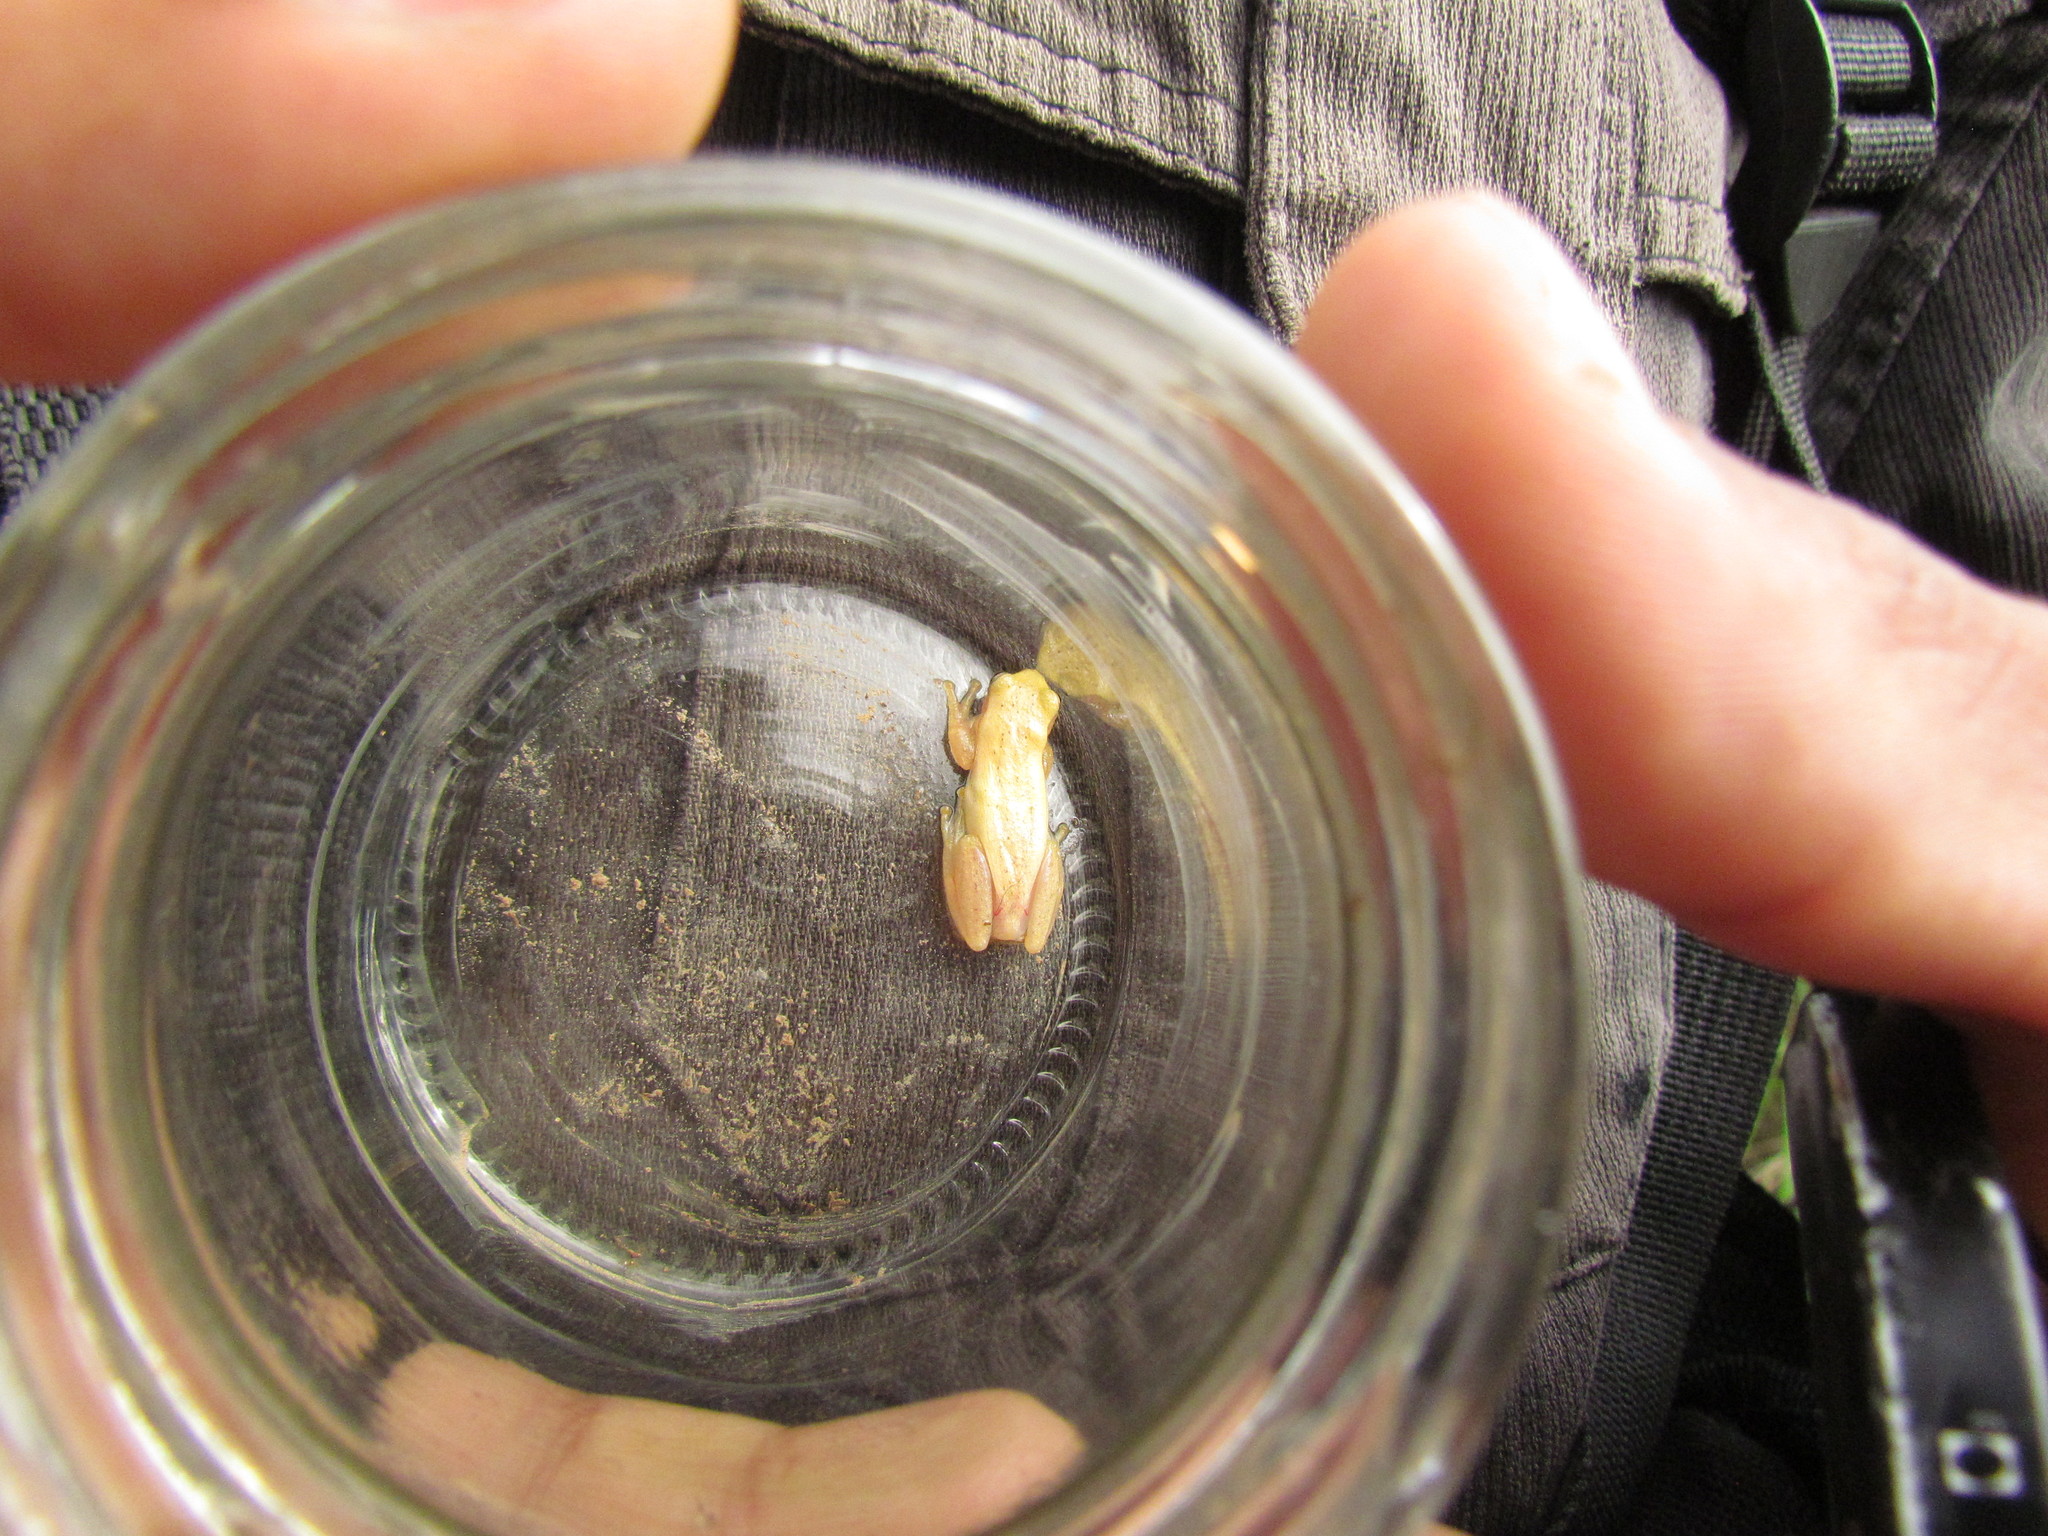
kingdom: Animalia
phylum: Chordata
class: Amphibia
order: Anura
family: Hylidae
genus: Dendropsophus
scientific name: Dendropsophus sanborni
